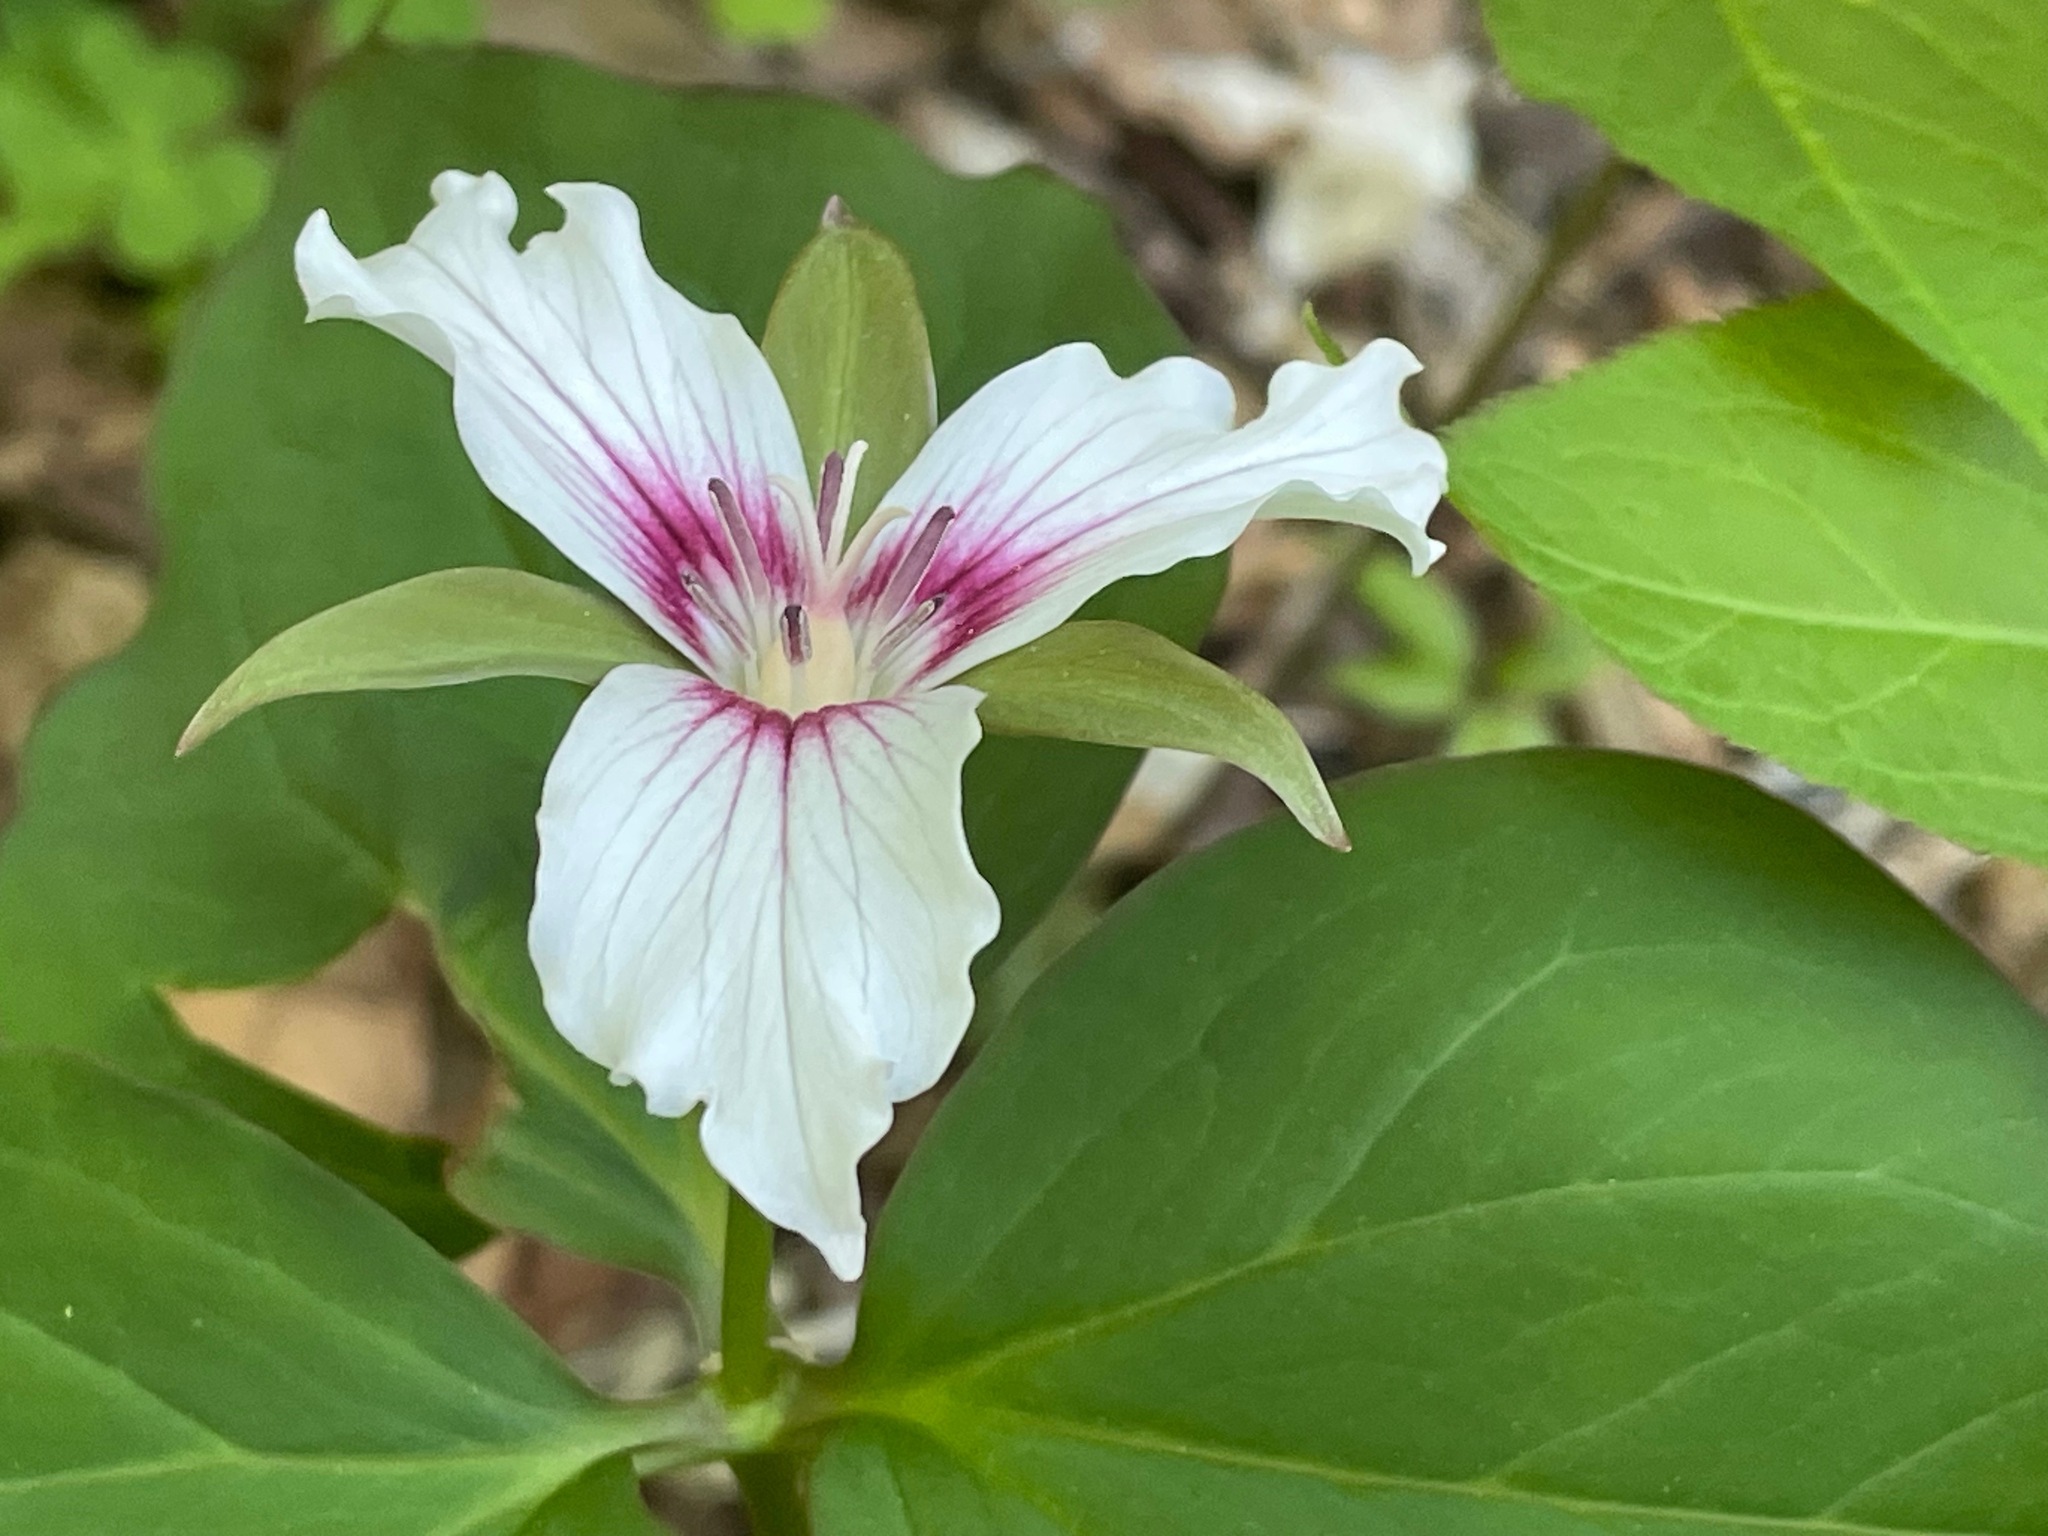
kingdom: Plantae
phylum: Tracheophyta
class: Liliopsida
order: Liliales
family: Melanthiaceae
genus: Trillium
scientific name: Trillium undulatum
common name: Paint trillium
